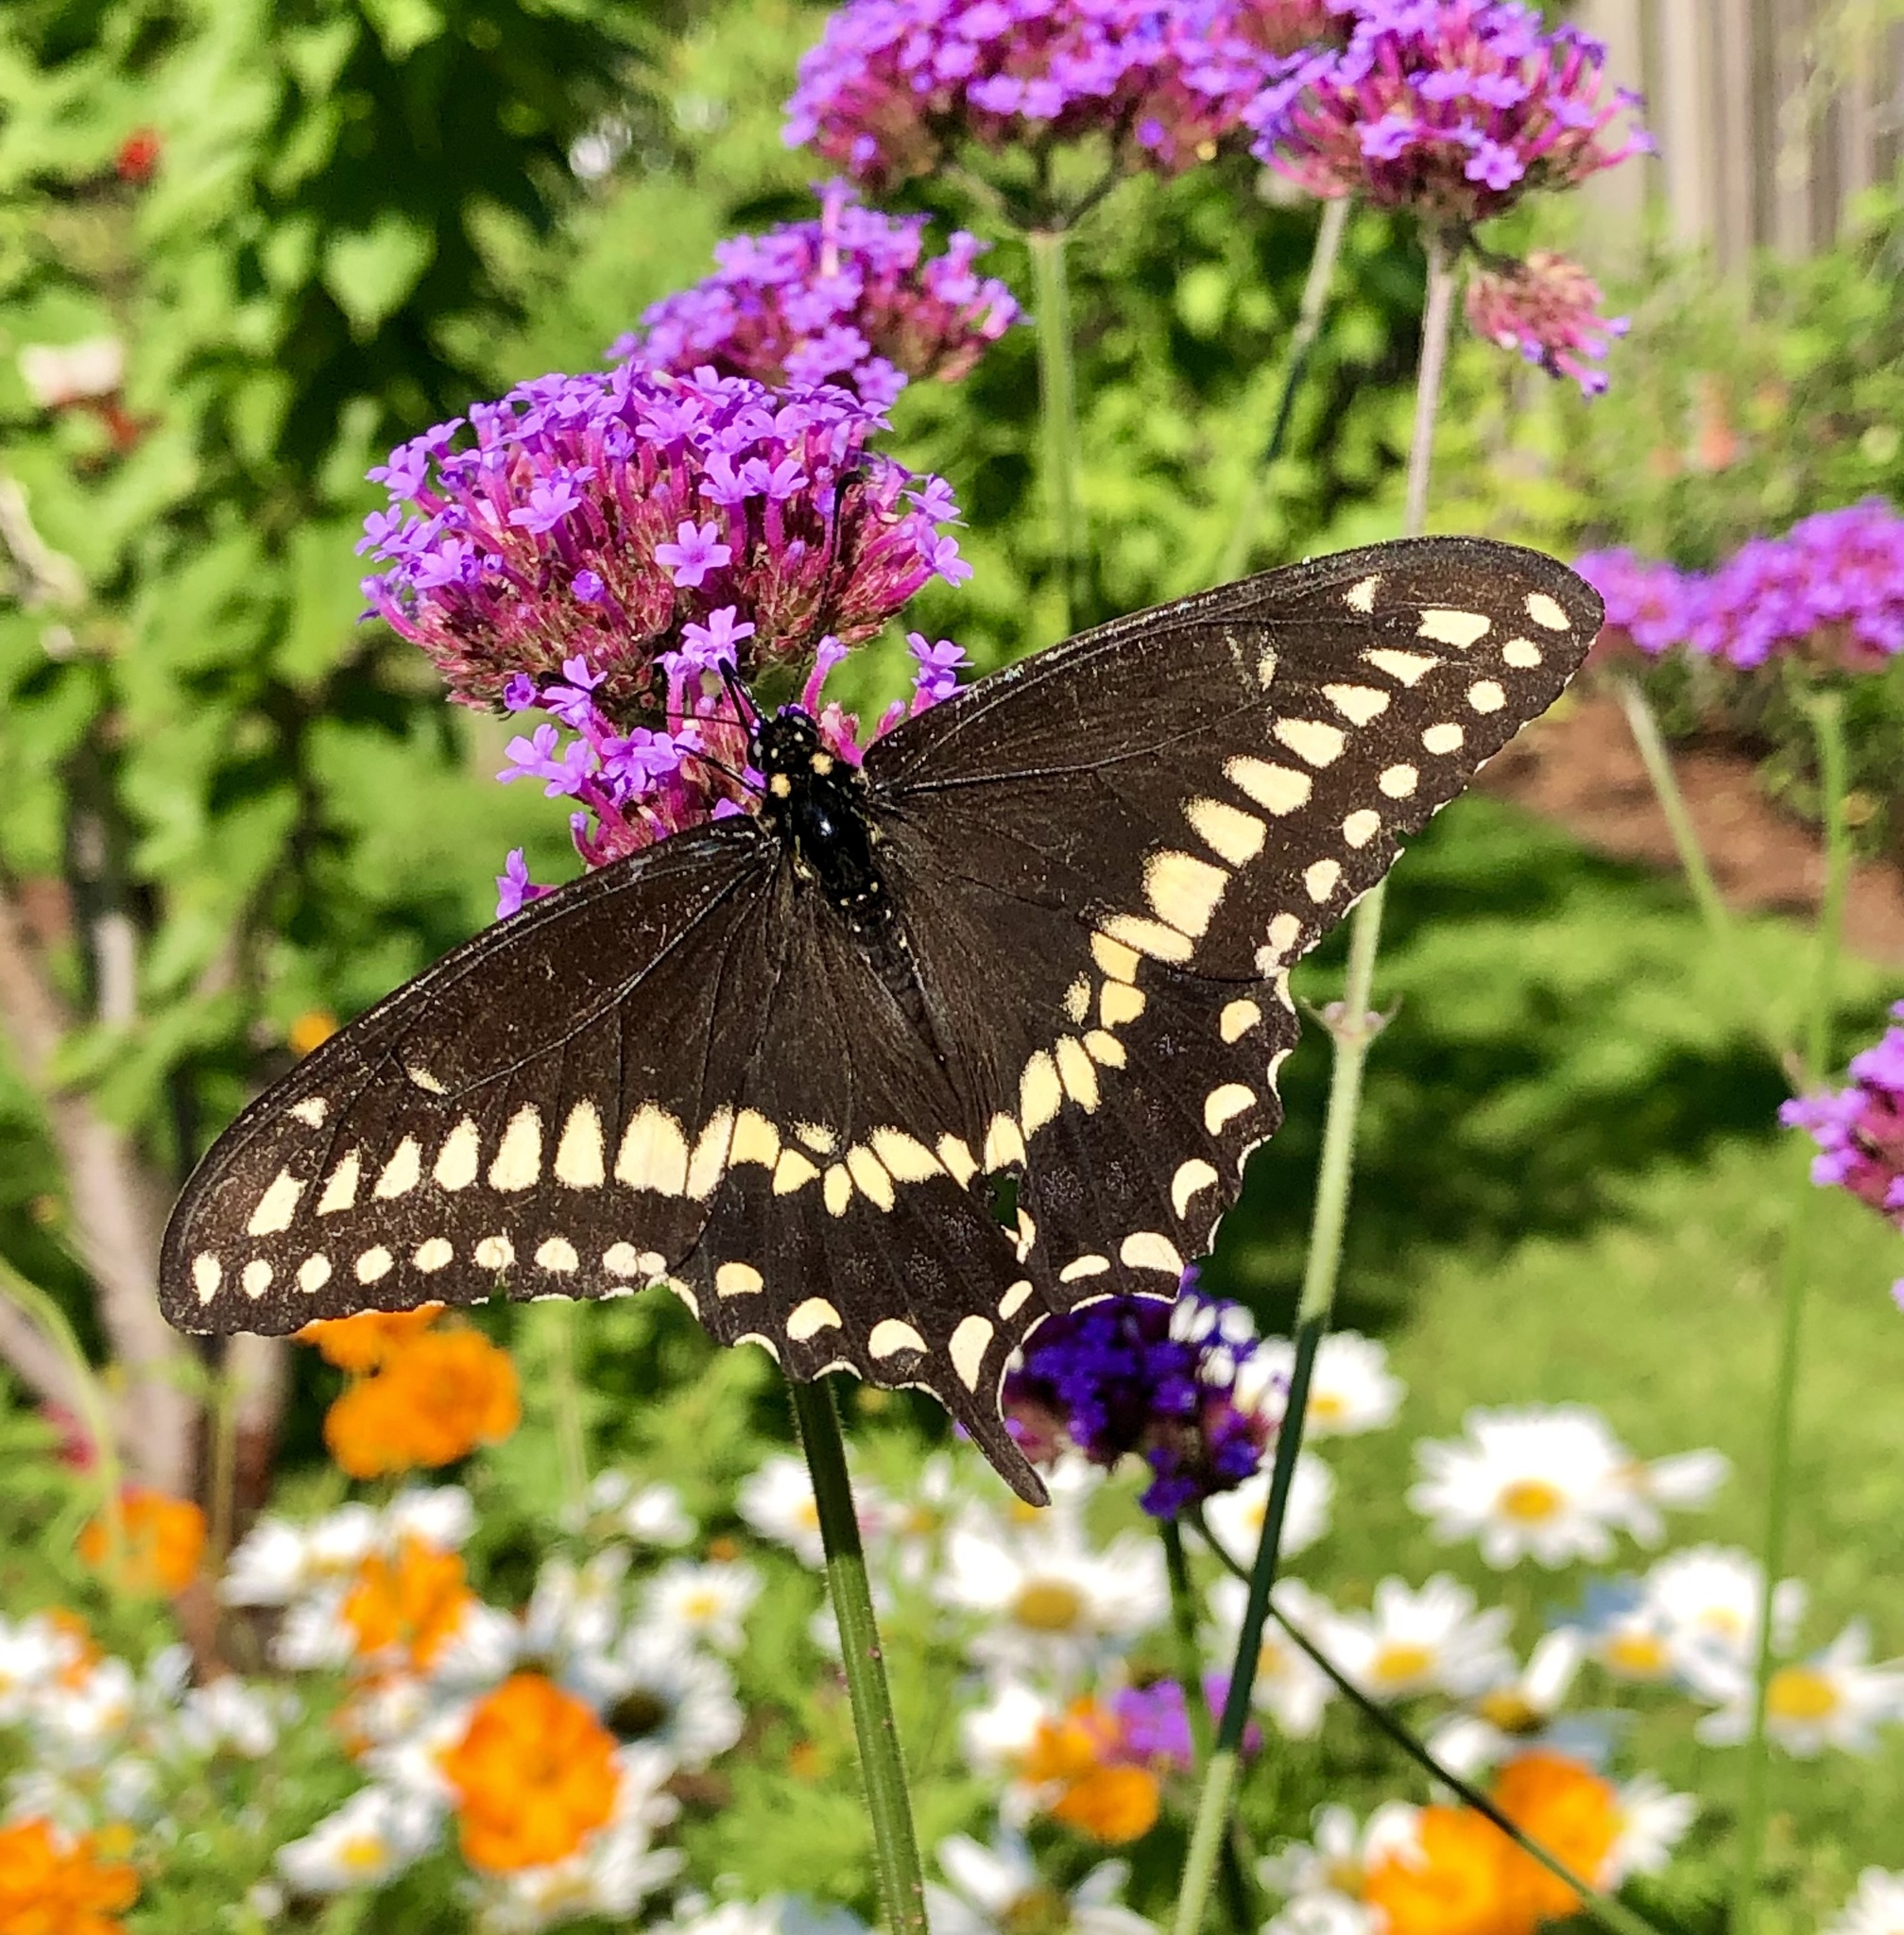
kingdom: Animalia
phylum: Arthropoda
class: Insecta
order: Lepidoptera
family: Papilionidae
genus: Papilio
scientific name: Papilio polyxenes
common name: Black swallowtail
